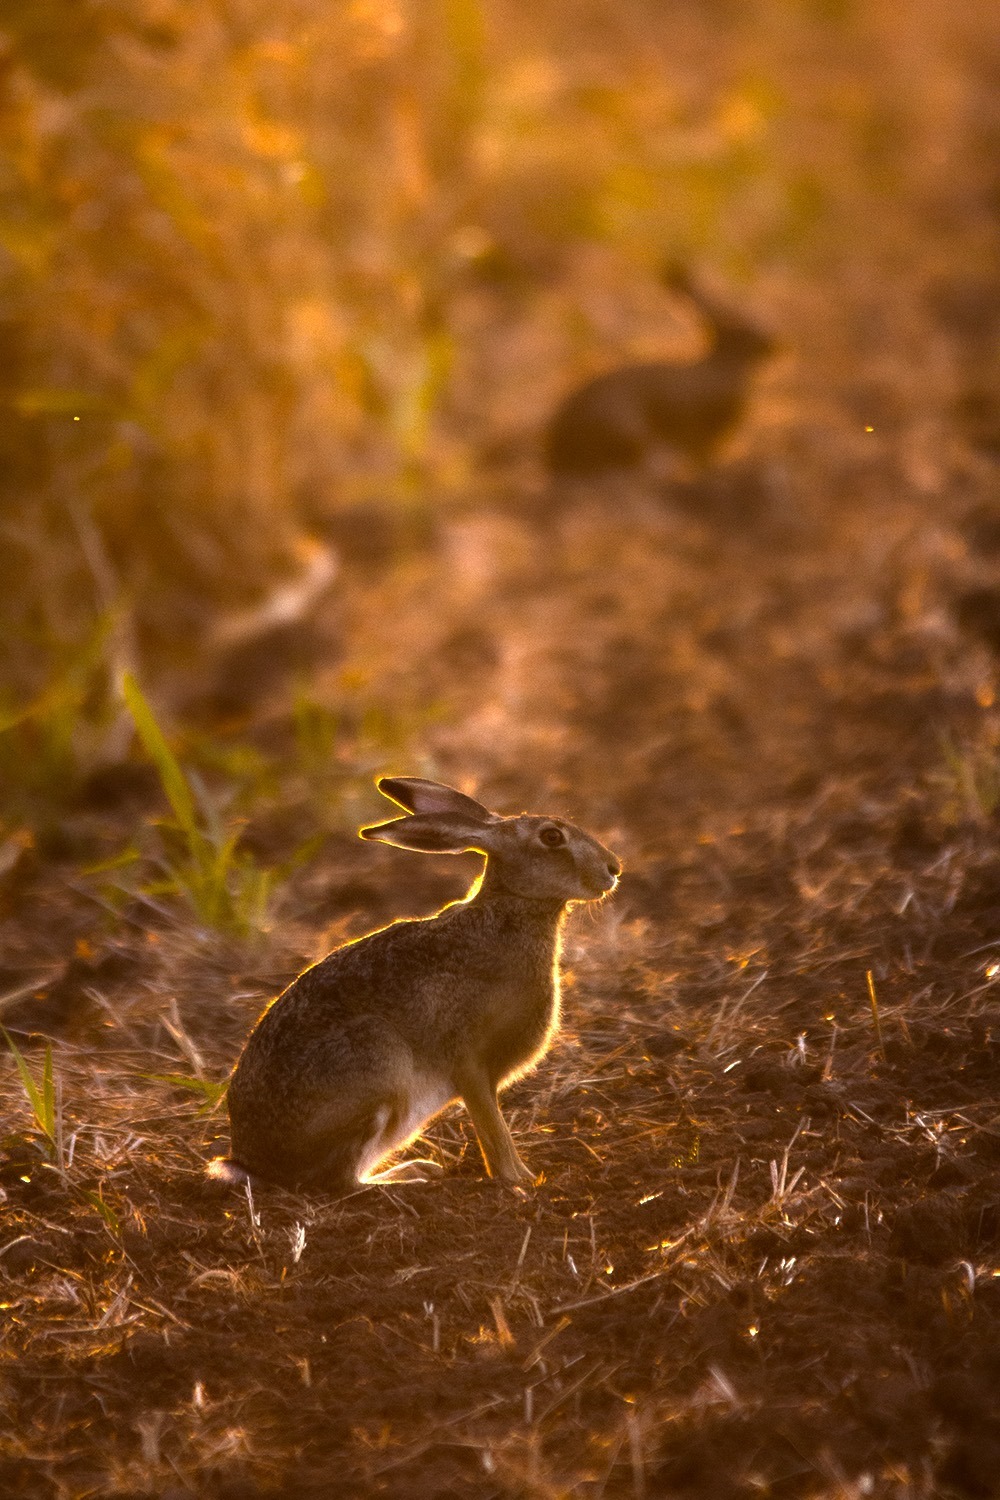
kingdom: Animalia
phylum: Chordata
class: Mammalia
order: Lagomorpha
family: Leporidae
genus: Lepus
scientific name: Lepus europaeus
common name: European hare
